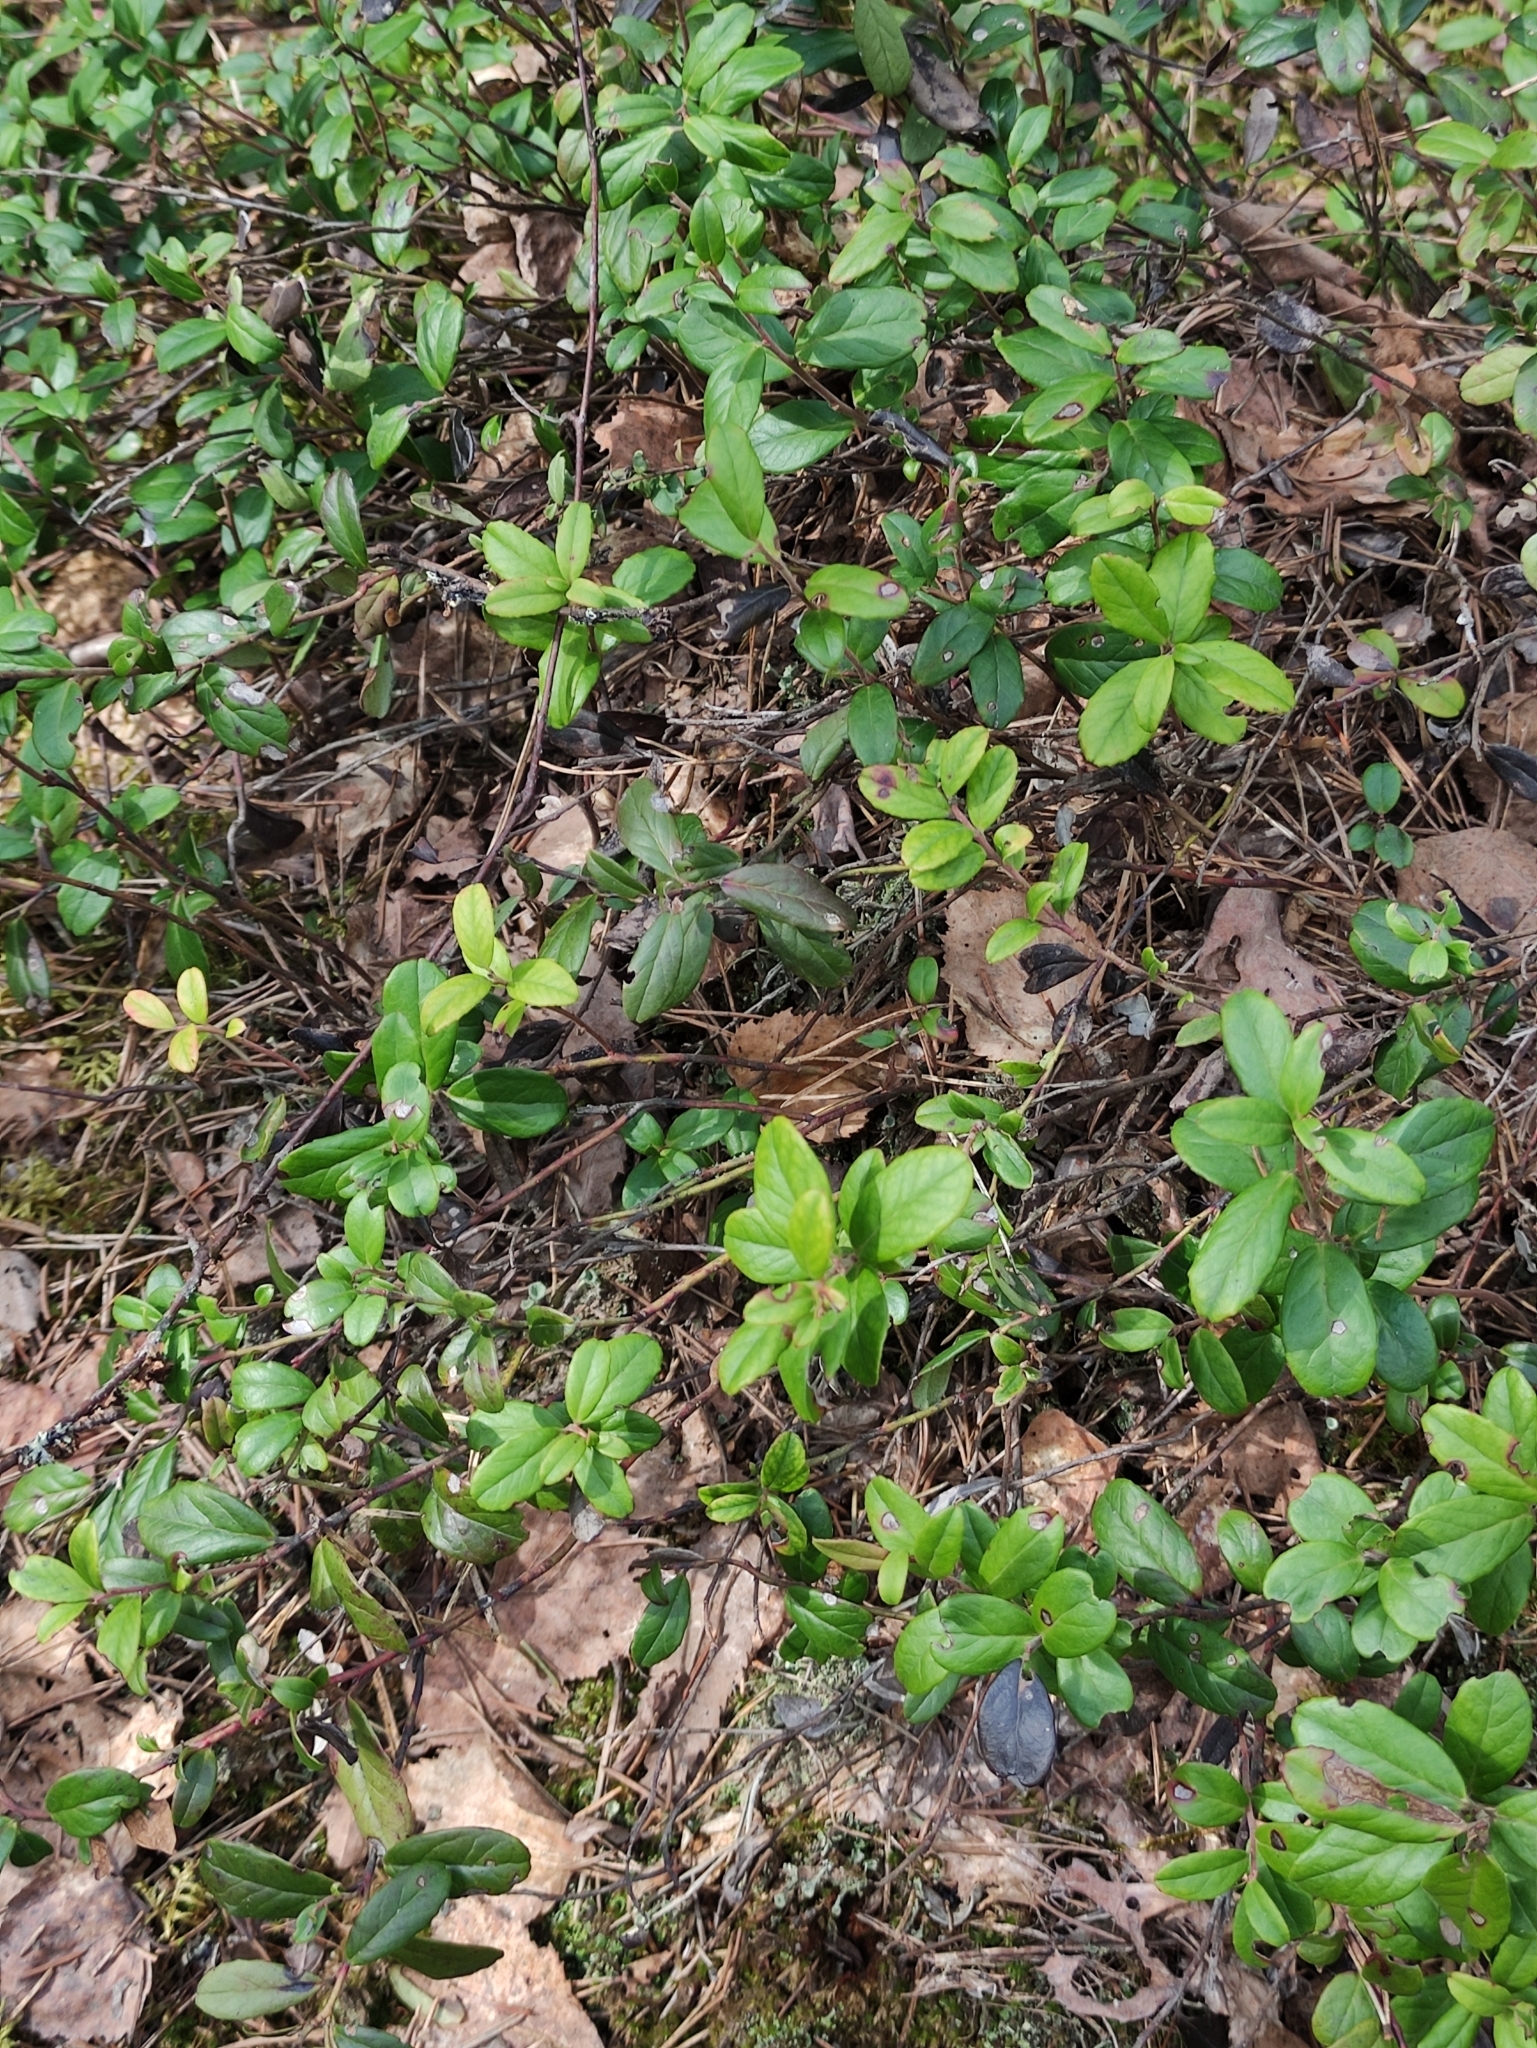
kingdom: Plantae
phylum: Tracheophyta
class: Magnoliopsida
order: Ericales
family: Ericaceae
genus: Vaccinium
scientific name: Vaccinium vitis-idaea
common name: Cowberry
